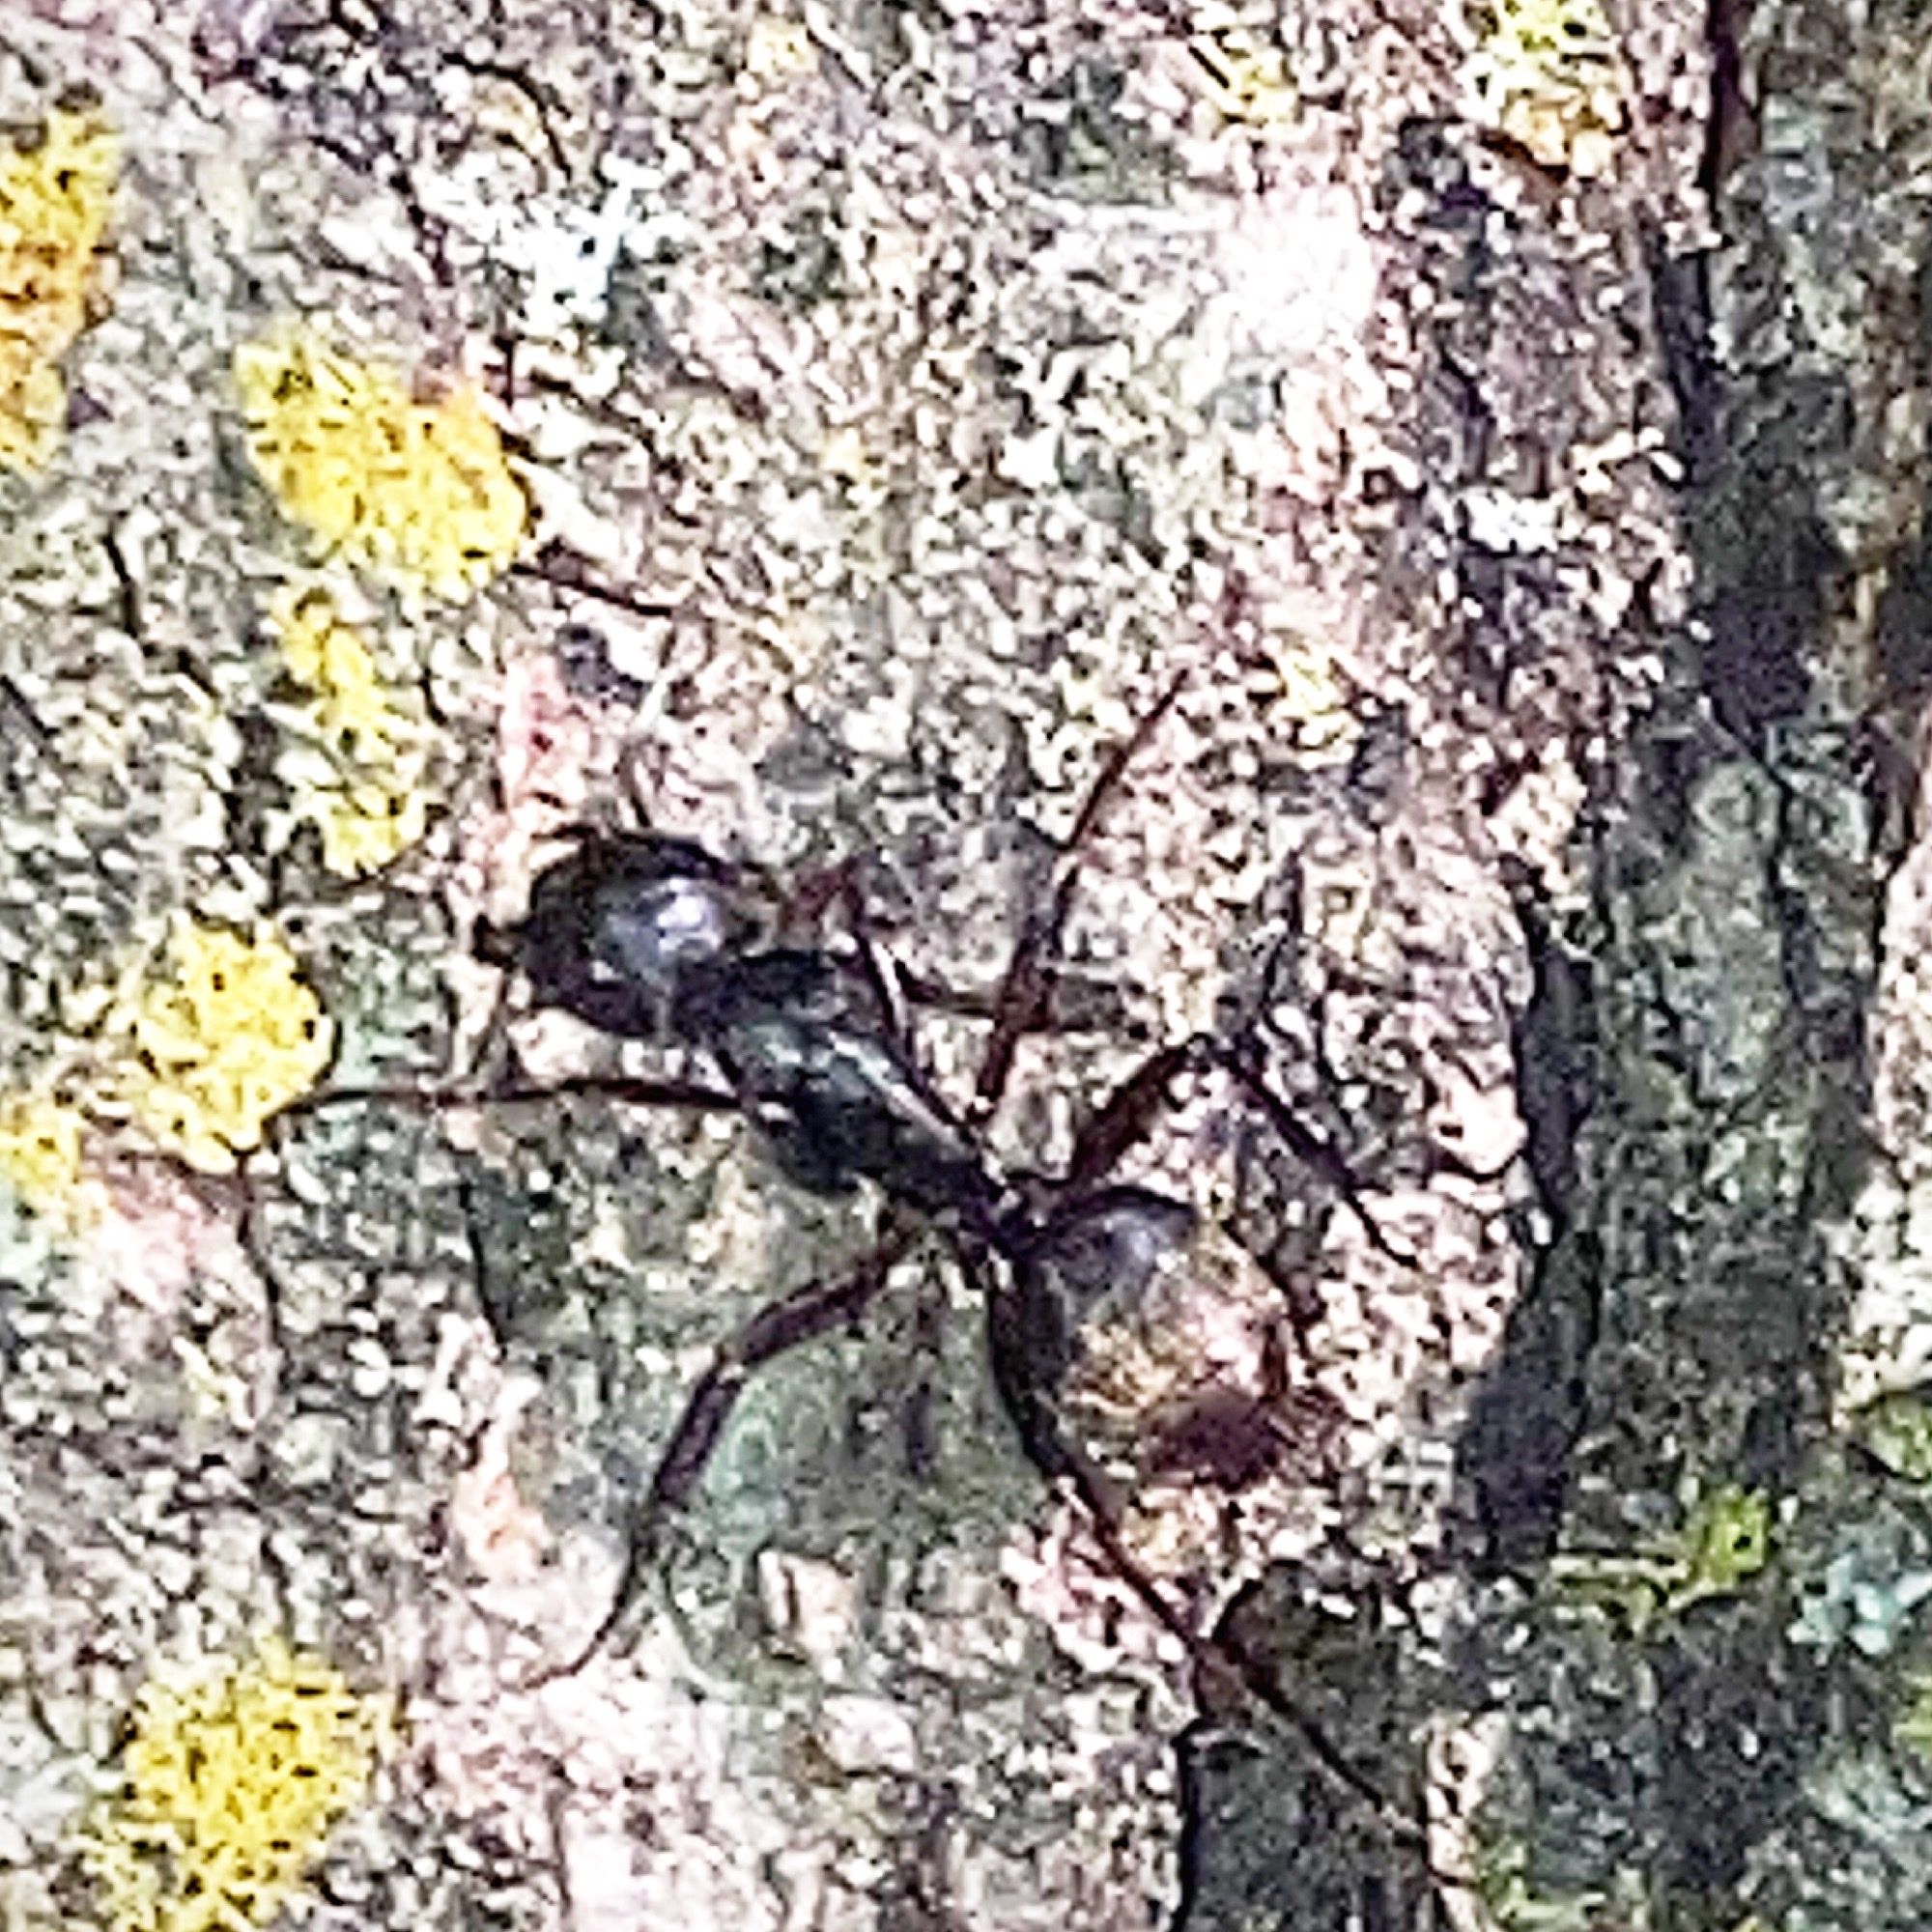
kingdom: Animalia
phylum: Arthropoda
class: Insecta
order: Hymenoptera
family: Formicidae
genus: Camponotus
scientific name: Camponotus pennsylvanicus
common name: Black carpenter ant
